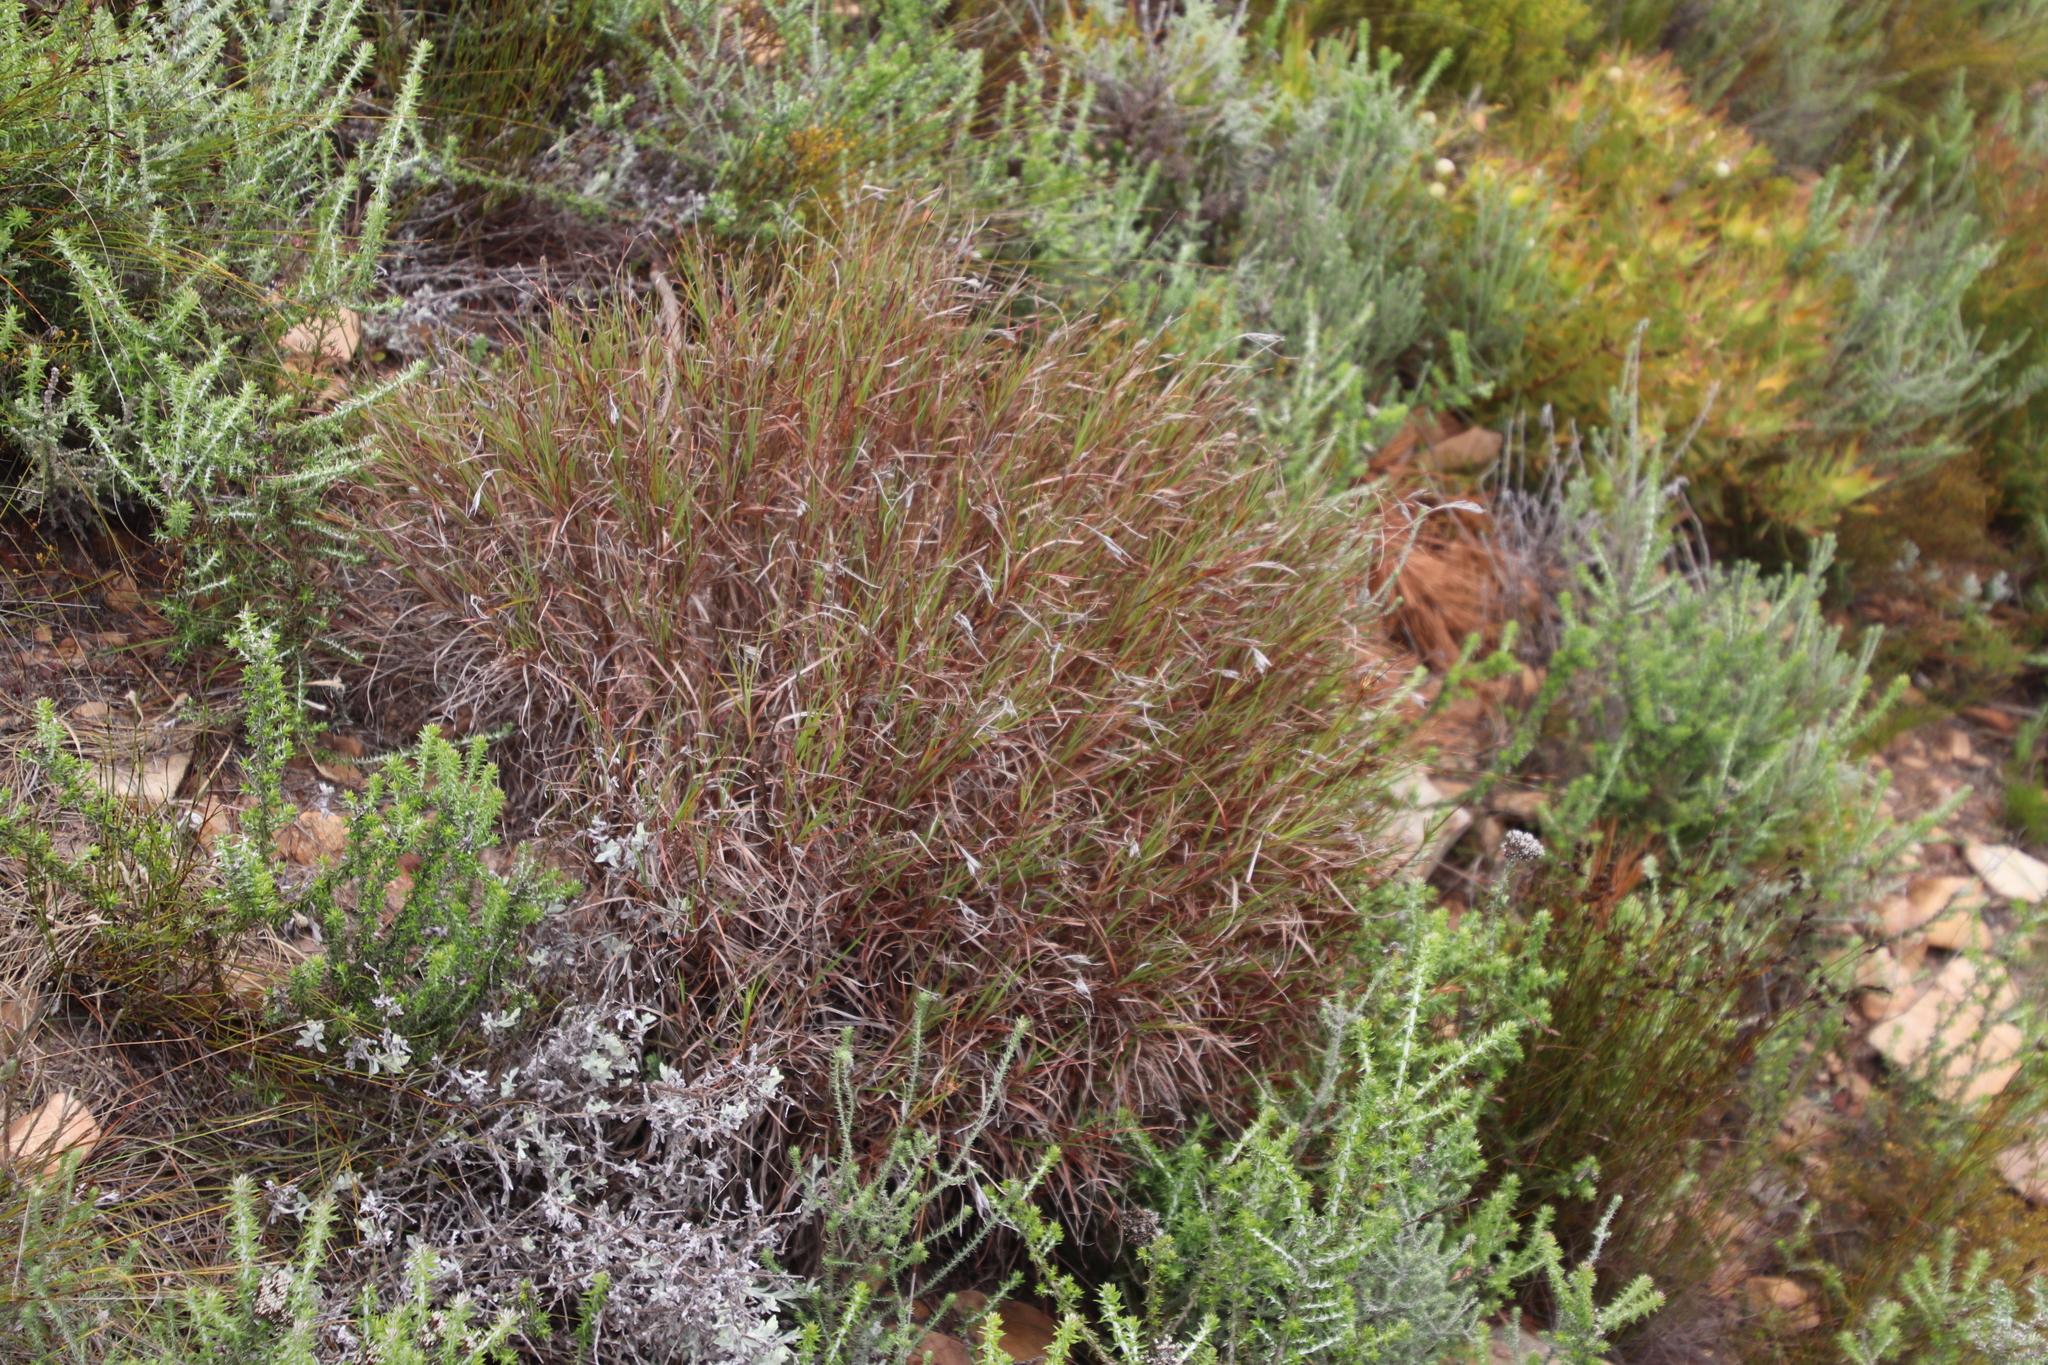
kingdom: Plantae
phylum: Tracheophyta
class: Liliopsida
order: Poales
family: Poaceae
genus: Themeda
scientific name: Themeda triandra
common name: Kangaroo grass
